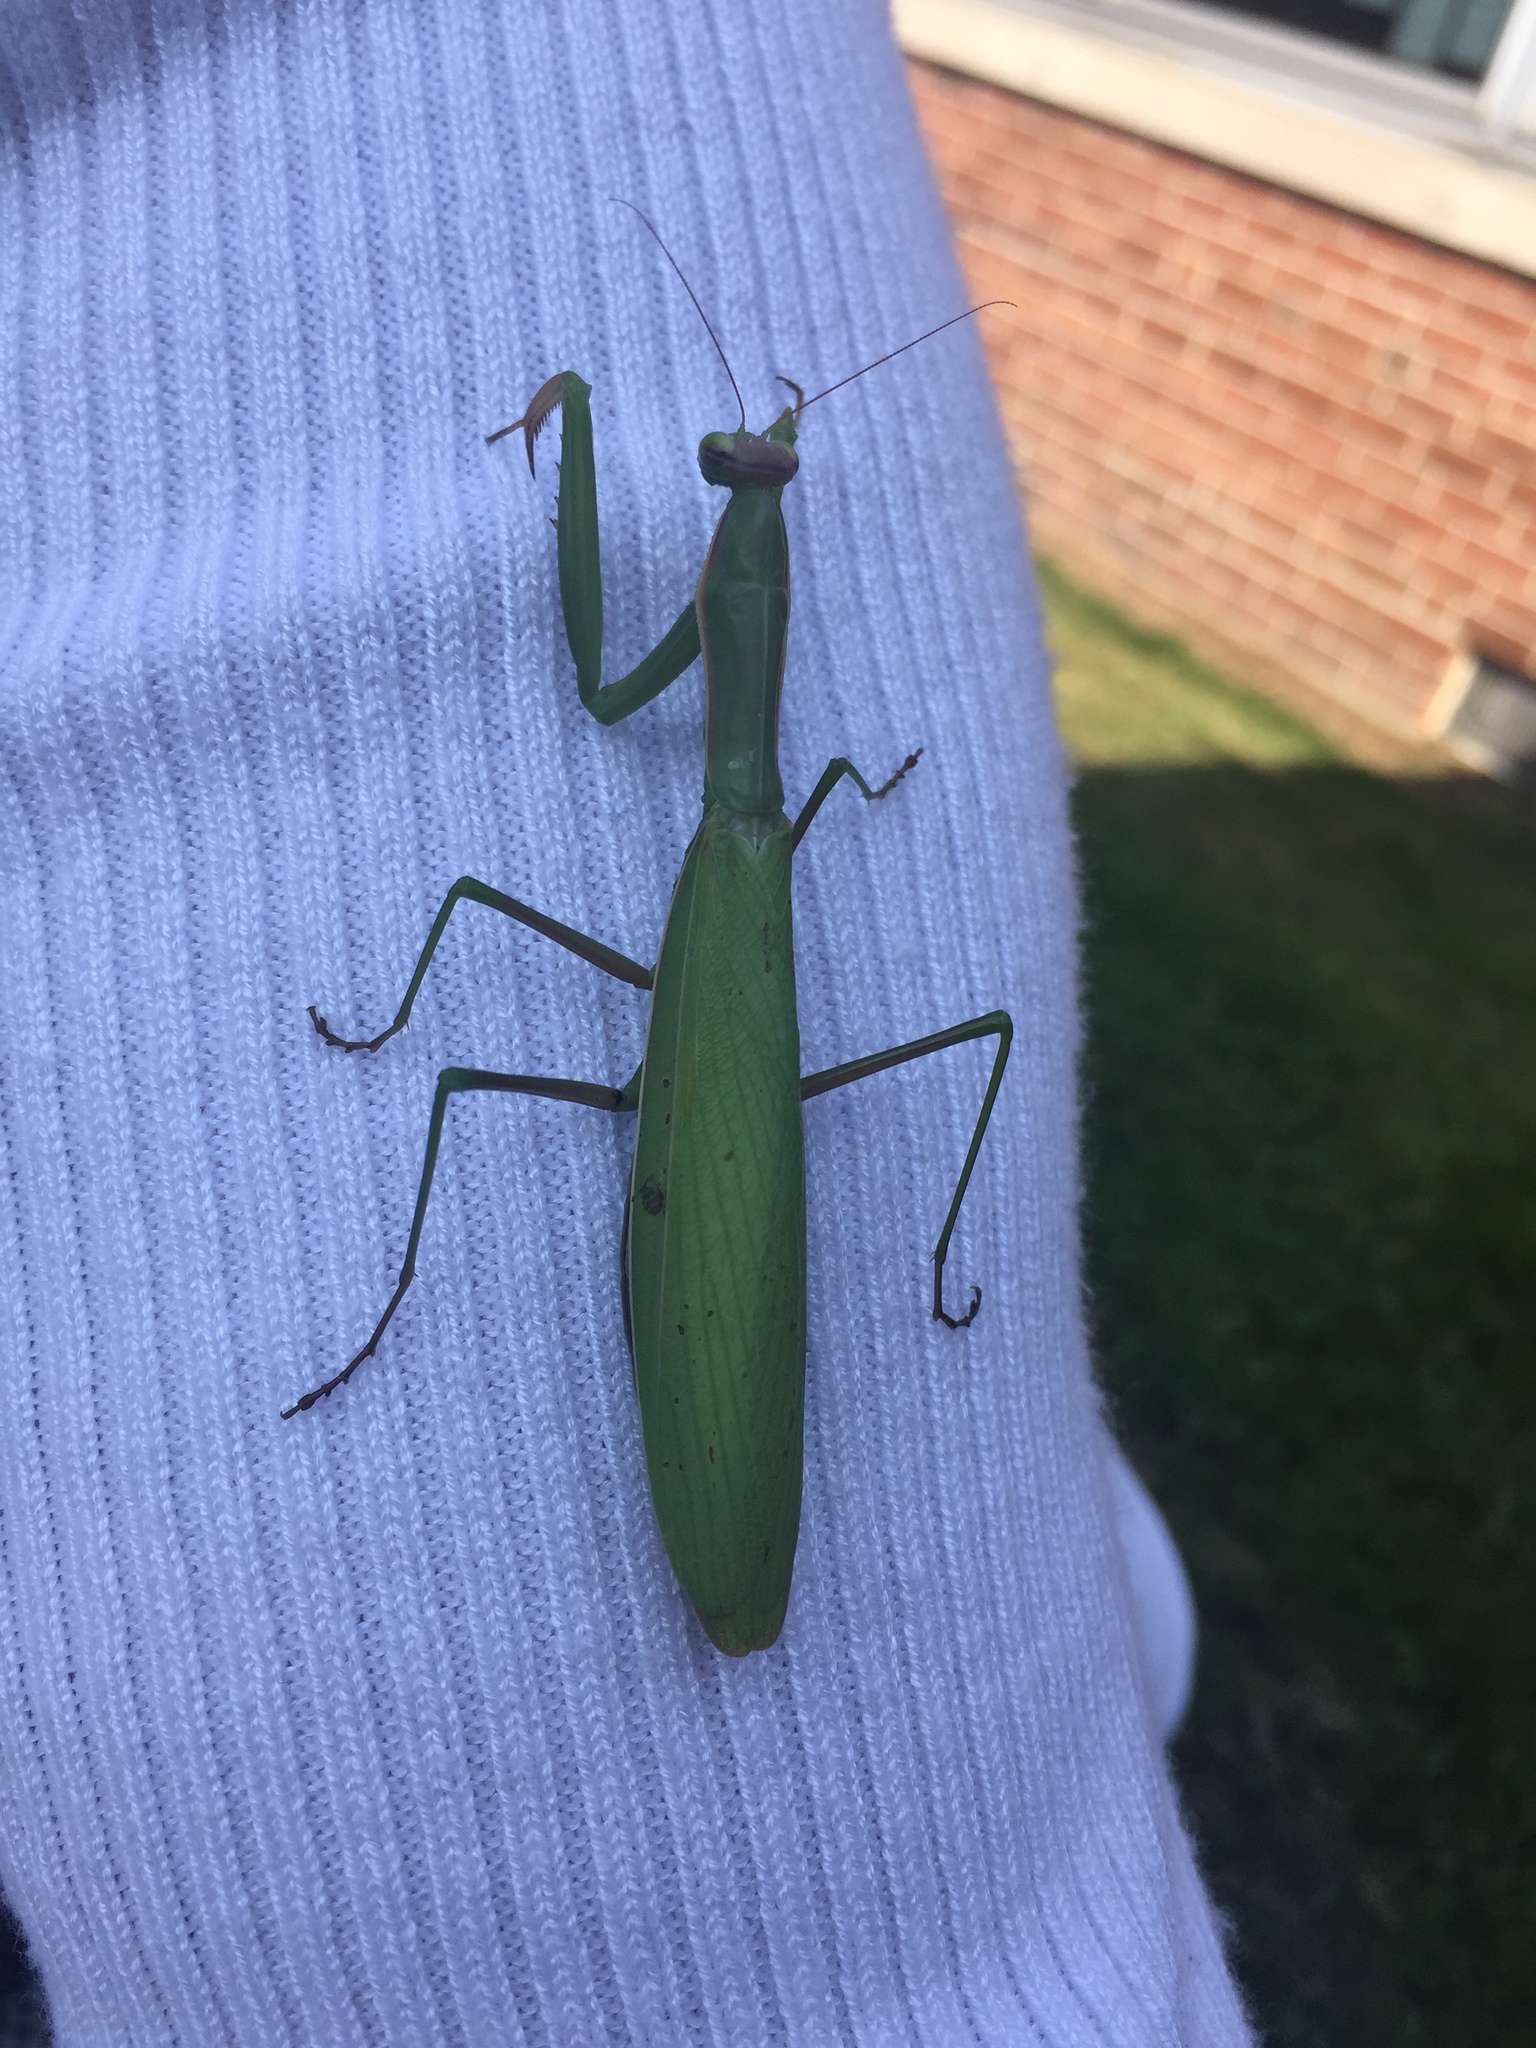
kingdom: Animalia
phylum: Arthropoda
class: Insecta
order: Mantodea
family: Mantidae
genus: Mantis
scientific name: Mantis religiosa
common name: Praying mantis
